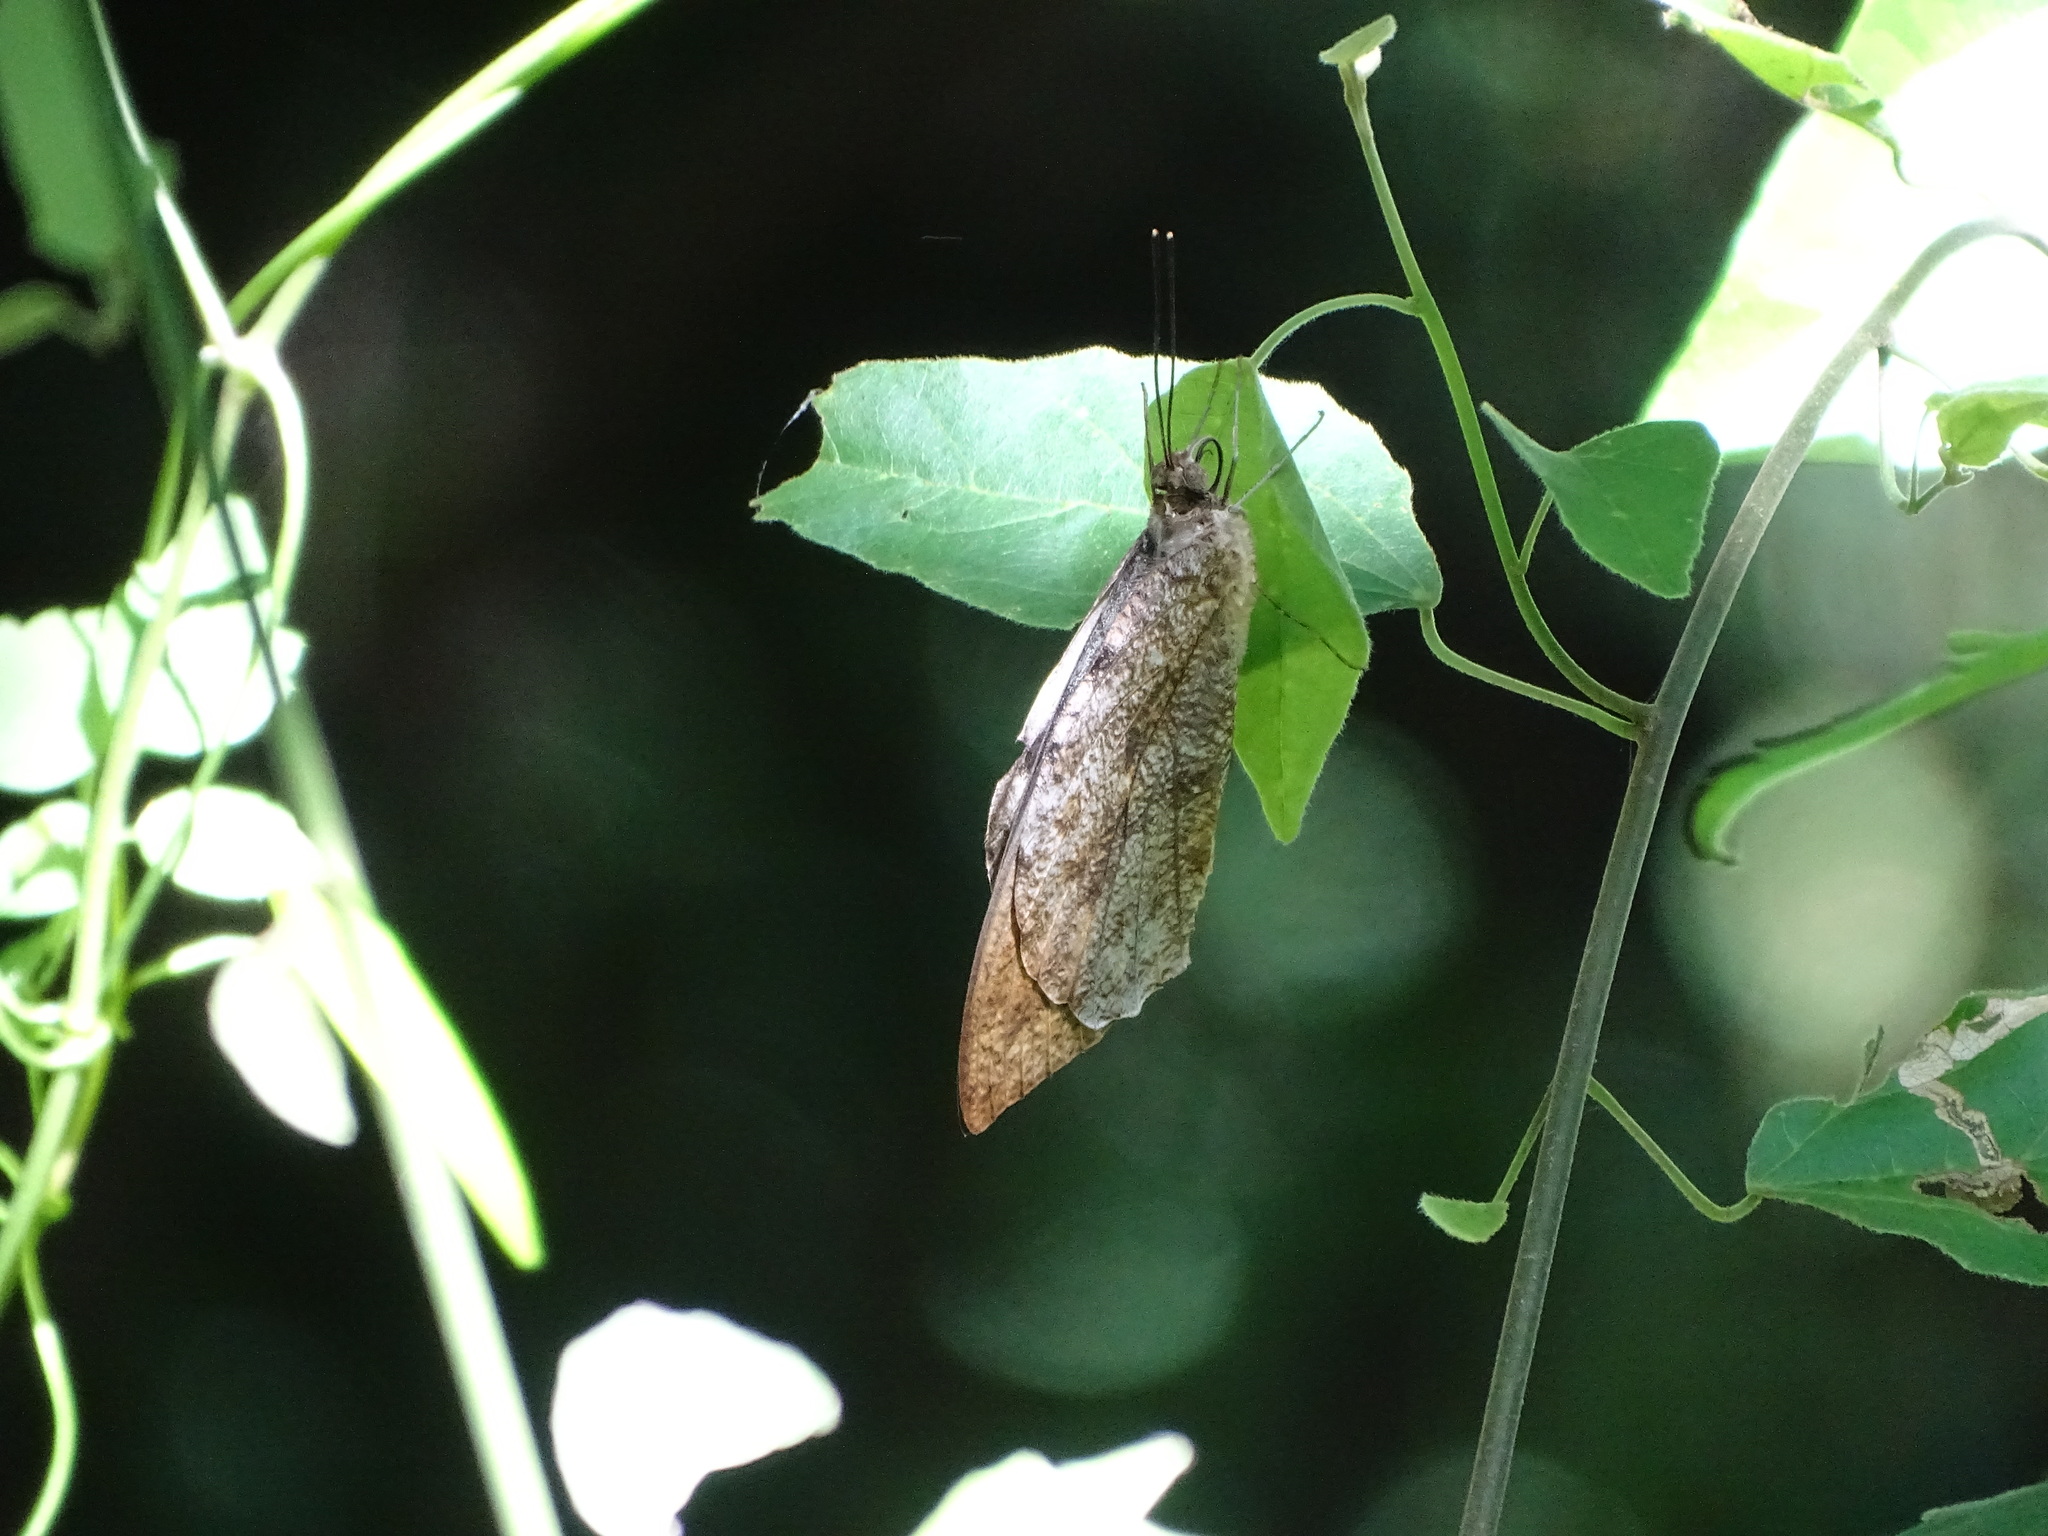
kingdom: Animalia
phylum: Arthropoda
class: Insecta
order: Lepidoptera
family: Pieridae
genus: Hebomoia
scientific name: Hebomoia glaucippe
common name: Great orange tip
